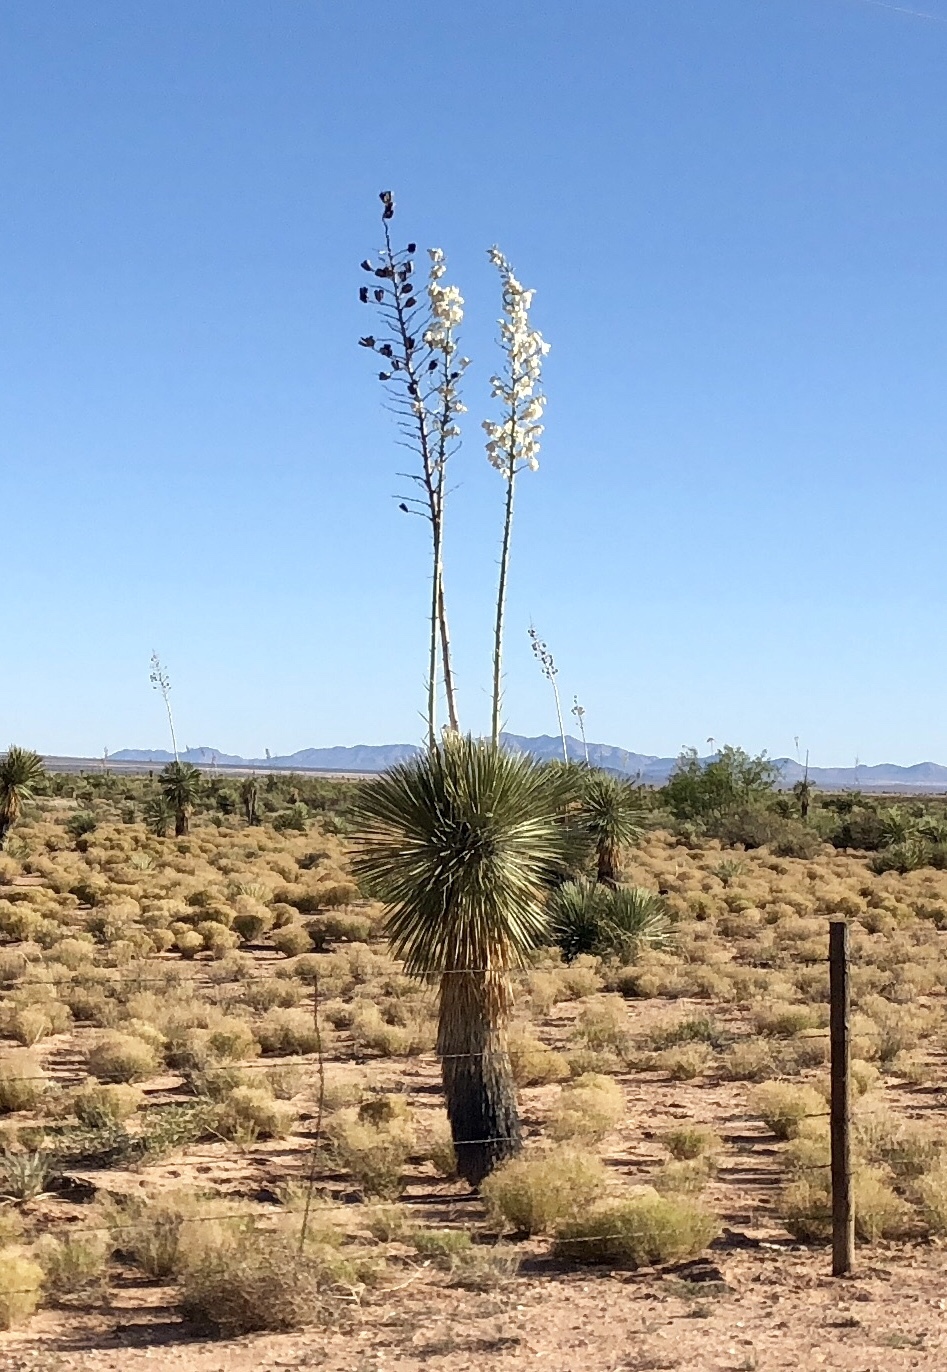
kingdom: Plantae
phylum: Tracheophyta
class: Liliopsida
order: Asparagales
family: Asparagaceae
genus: Yucca
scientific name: Yucca elata
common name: Palmella
